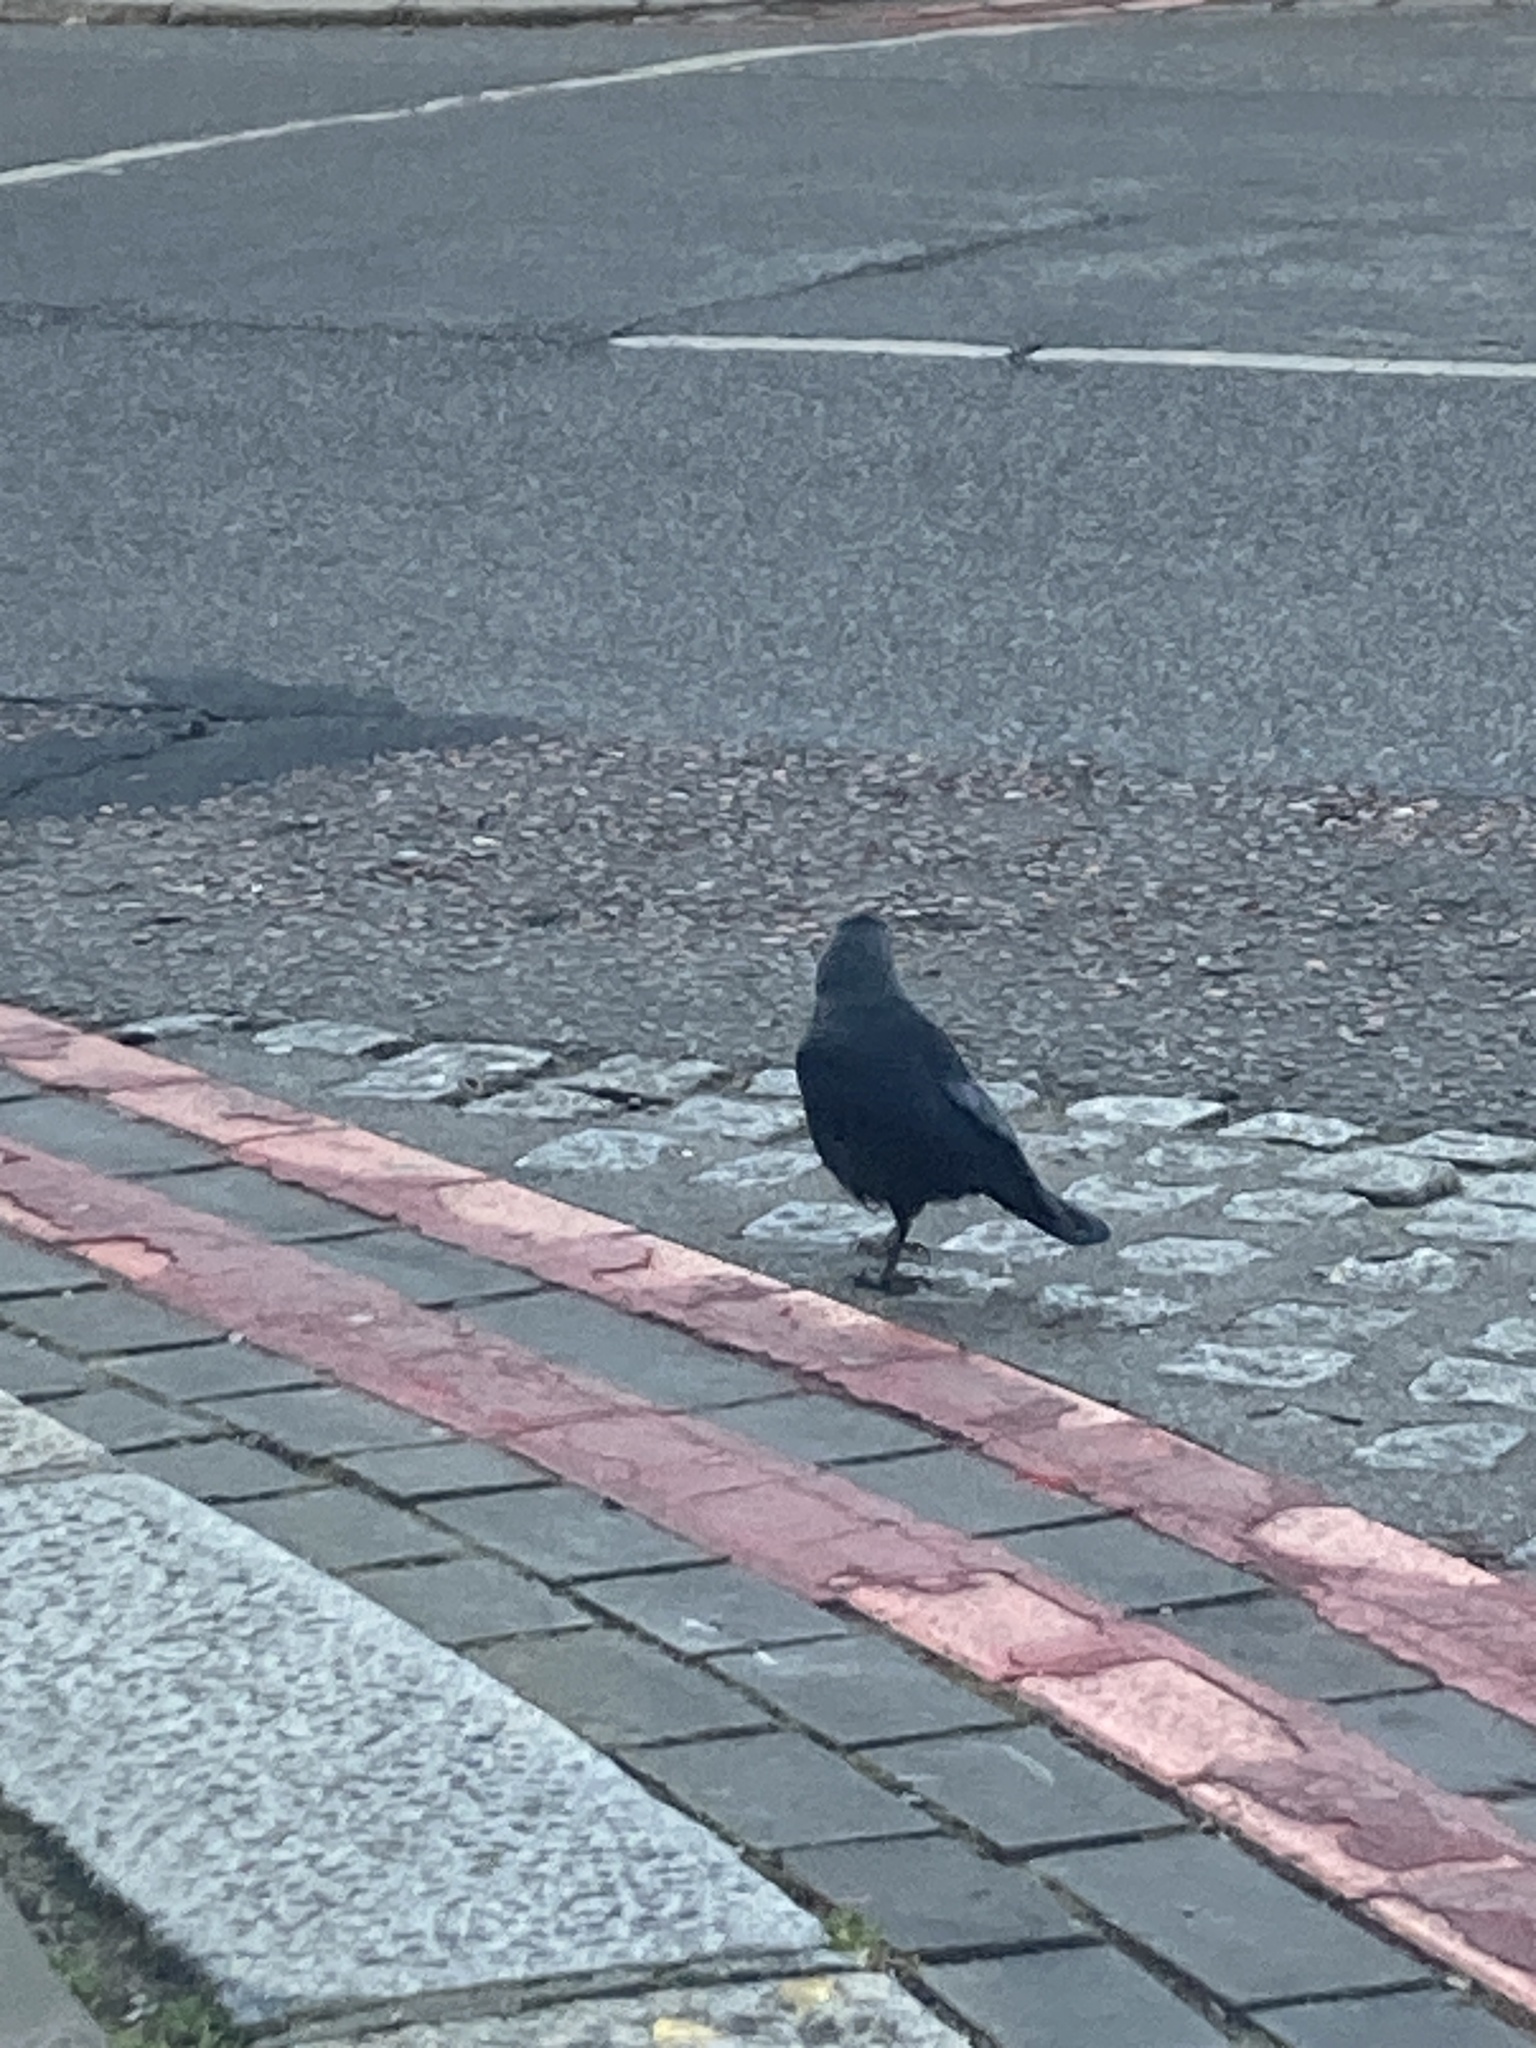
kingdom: Animalia
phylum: Chordata
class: Aves
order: Passeriformes
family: Corvidae
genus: Coloeus
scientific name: Coloeus monedula
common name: Western jackdaw
